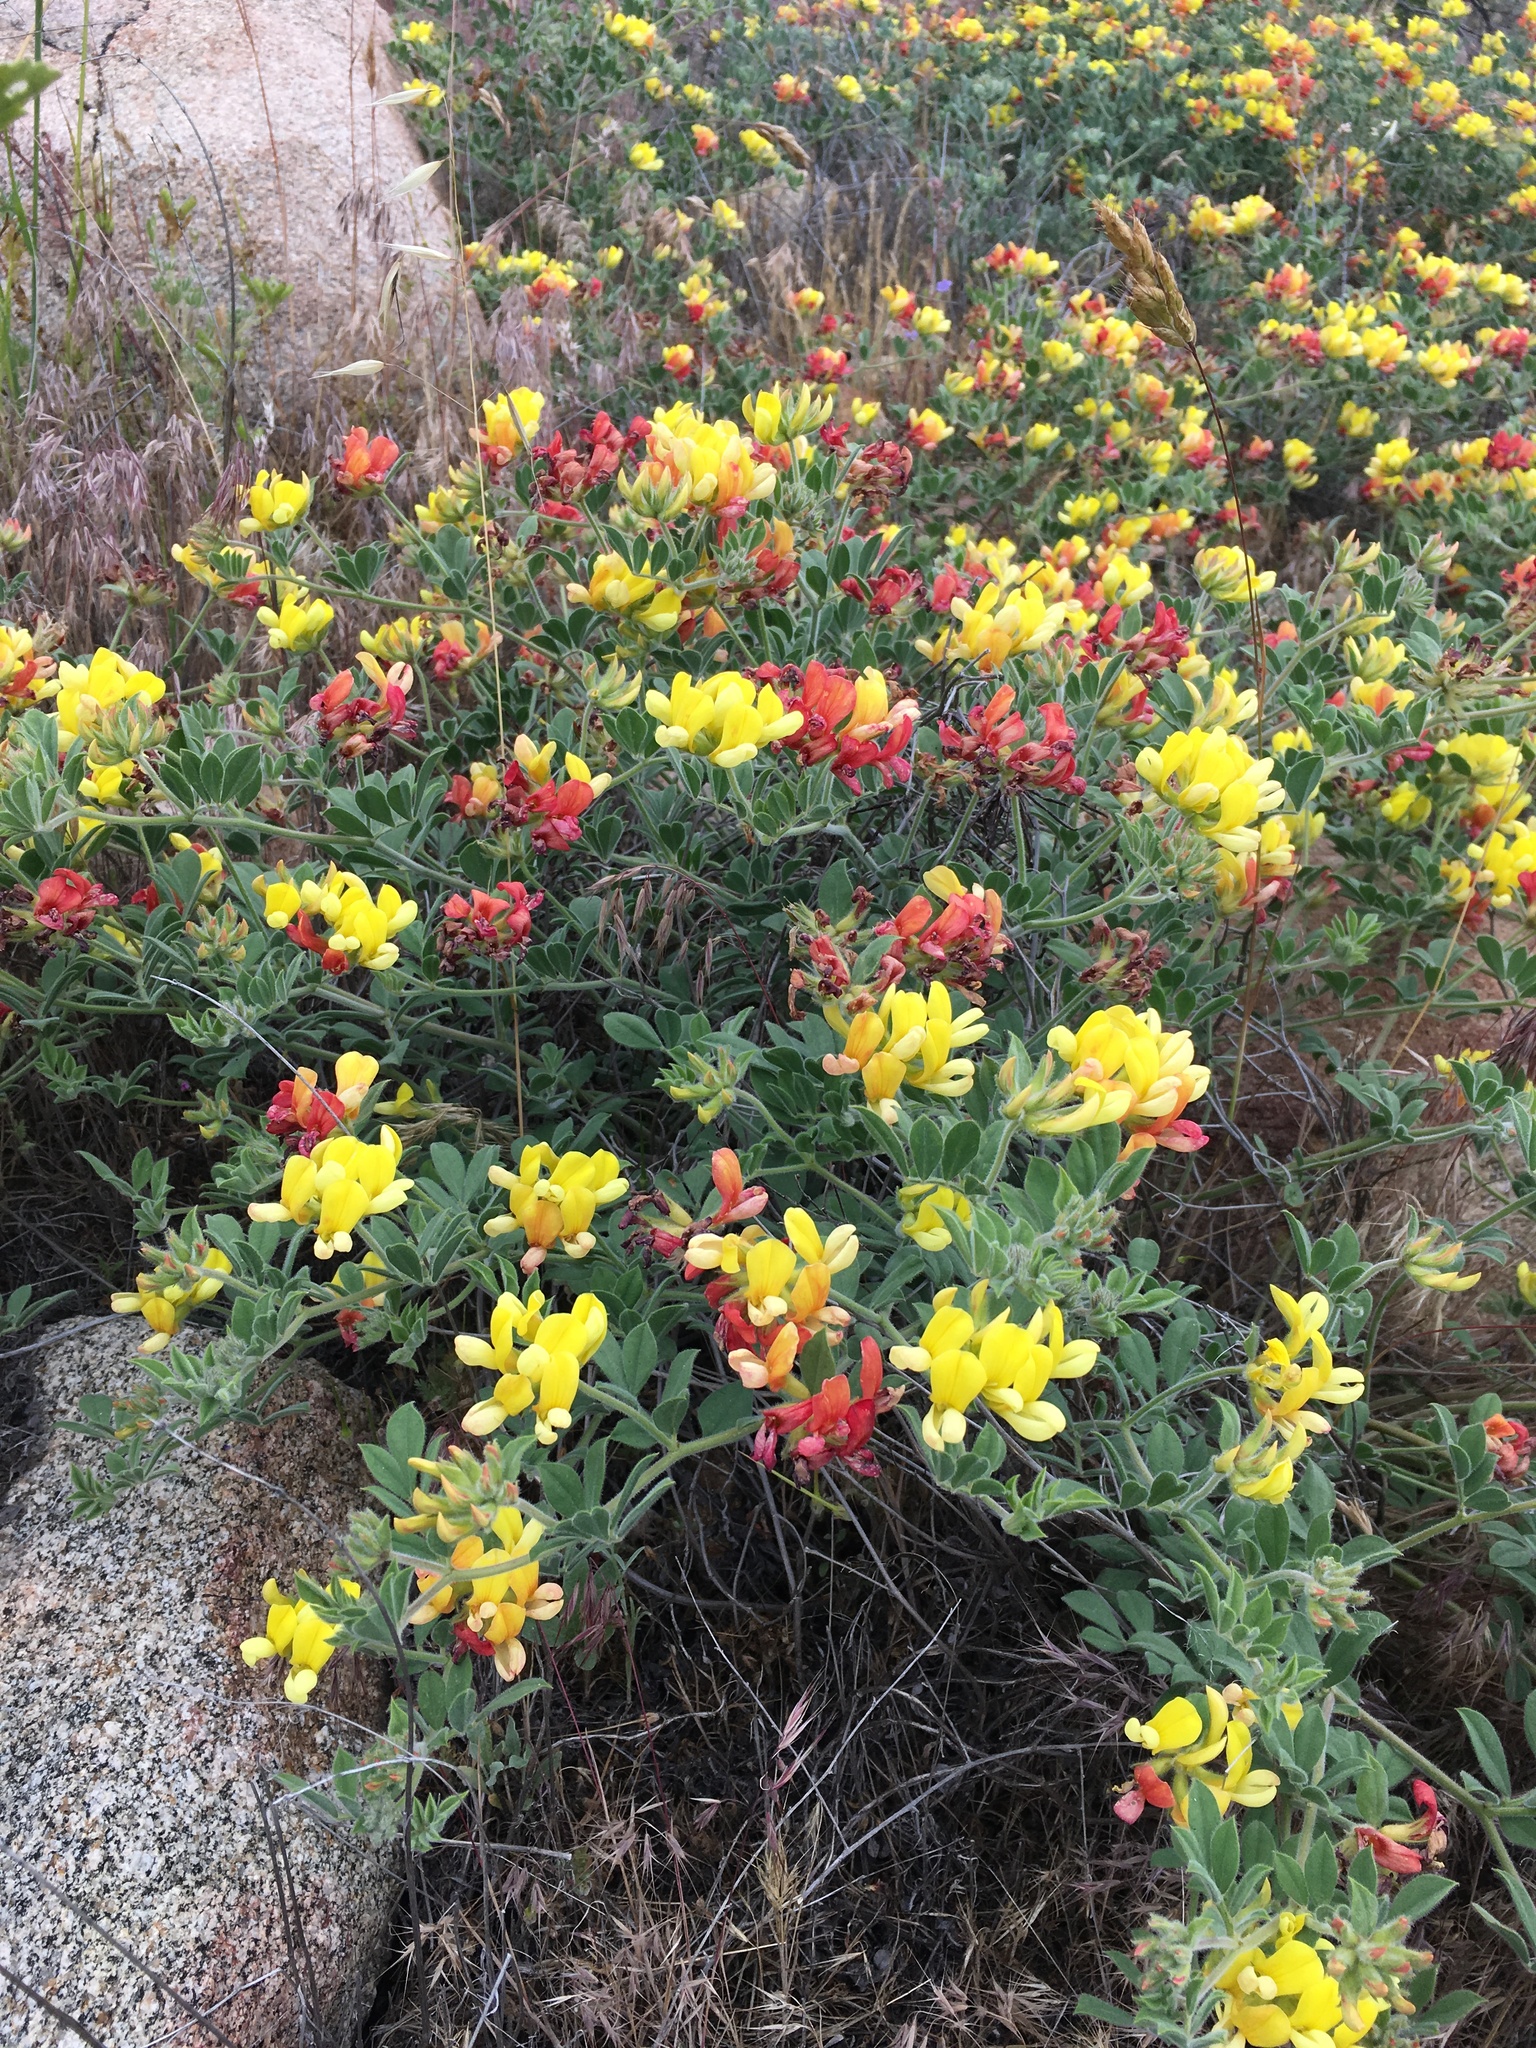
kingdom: Plantae
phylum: Tracheophyta
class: Magnoliopsida
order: Fabales
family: Fabaceae
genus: Acmispon
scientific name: Acmispon grandiflorus
